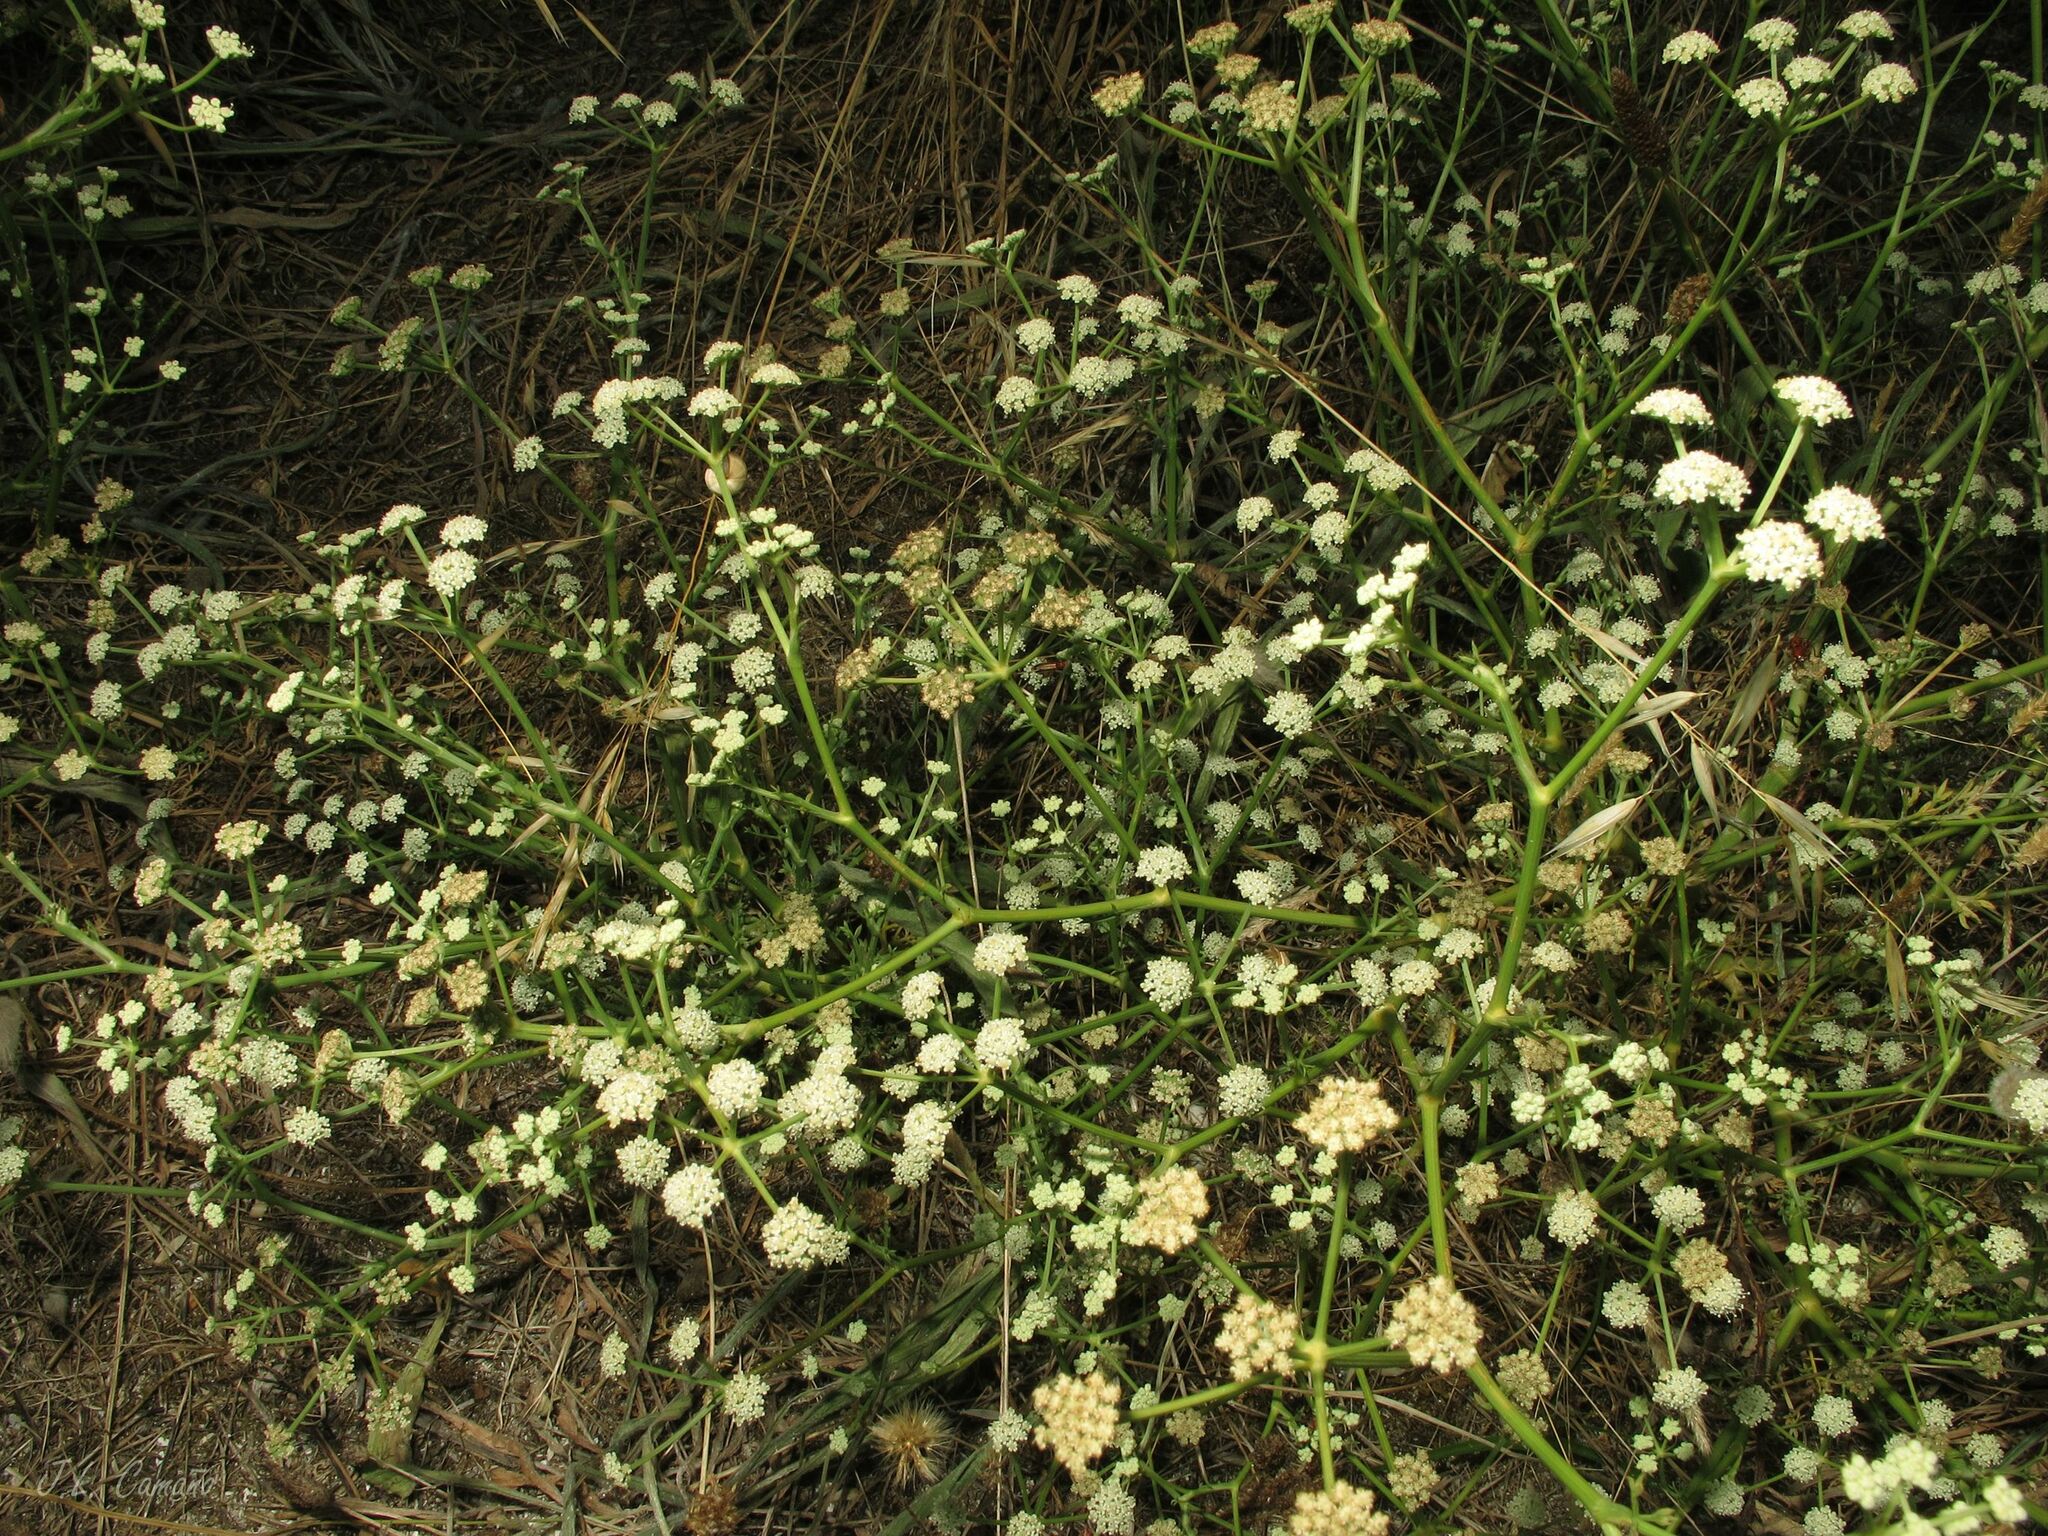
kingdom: Plantae
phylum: Tracheophyta
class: Magnoliopsida
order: Apiales
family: Apiaceae
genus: Seseli
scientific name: Seseli tortuosum
